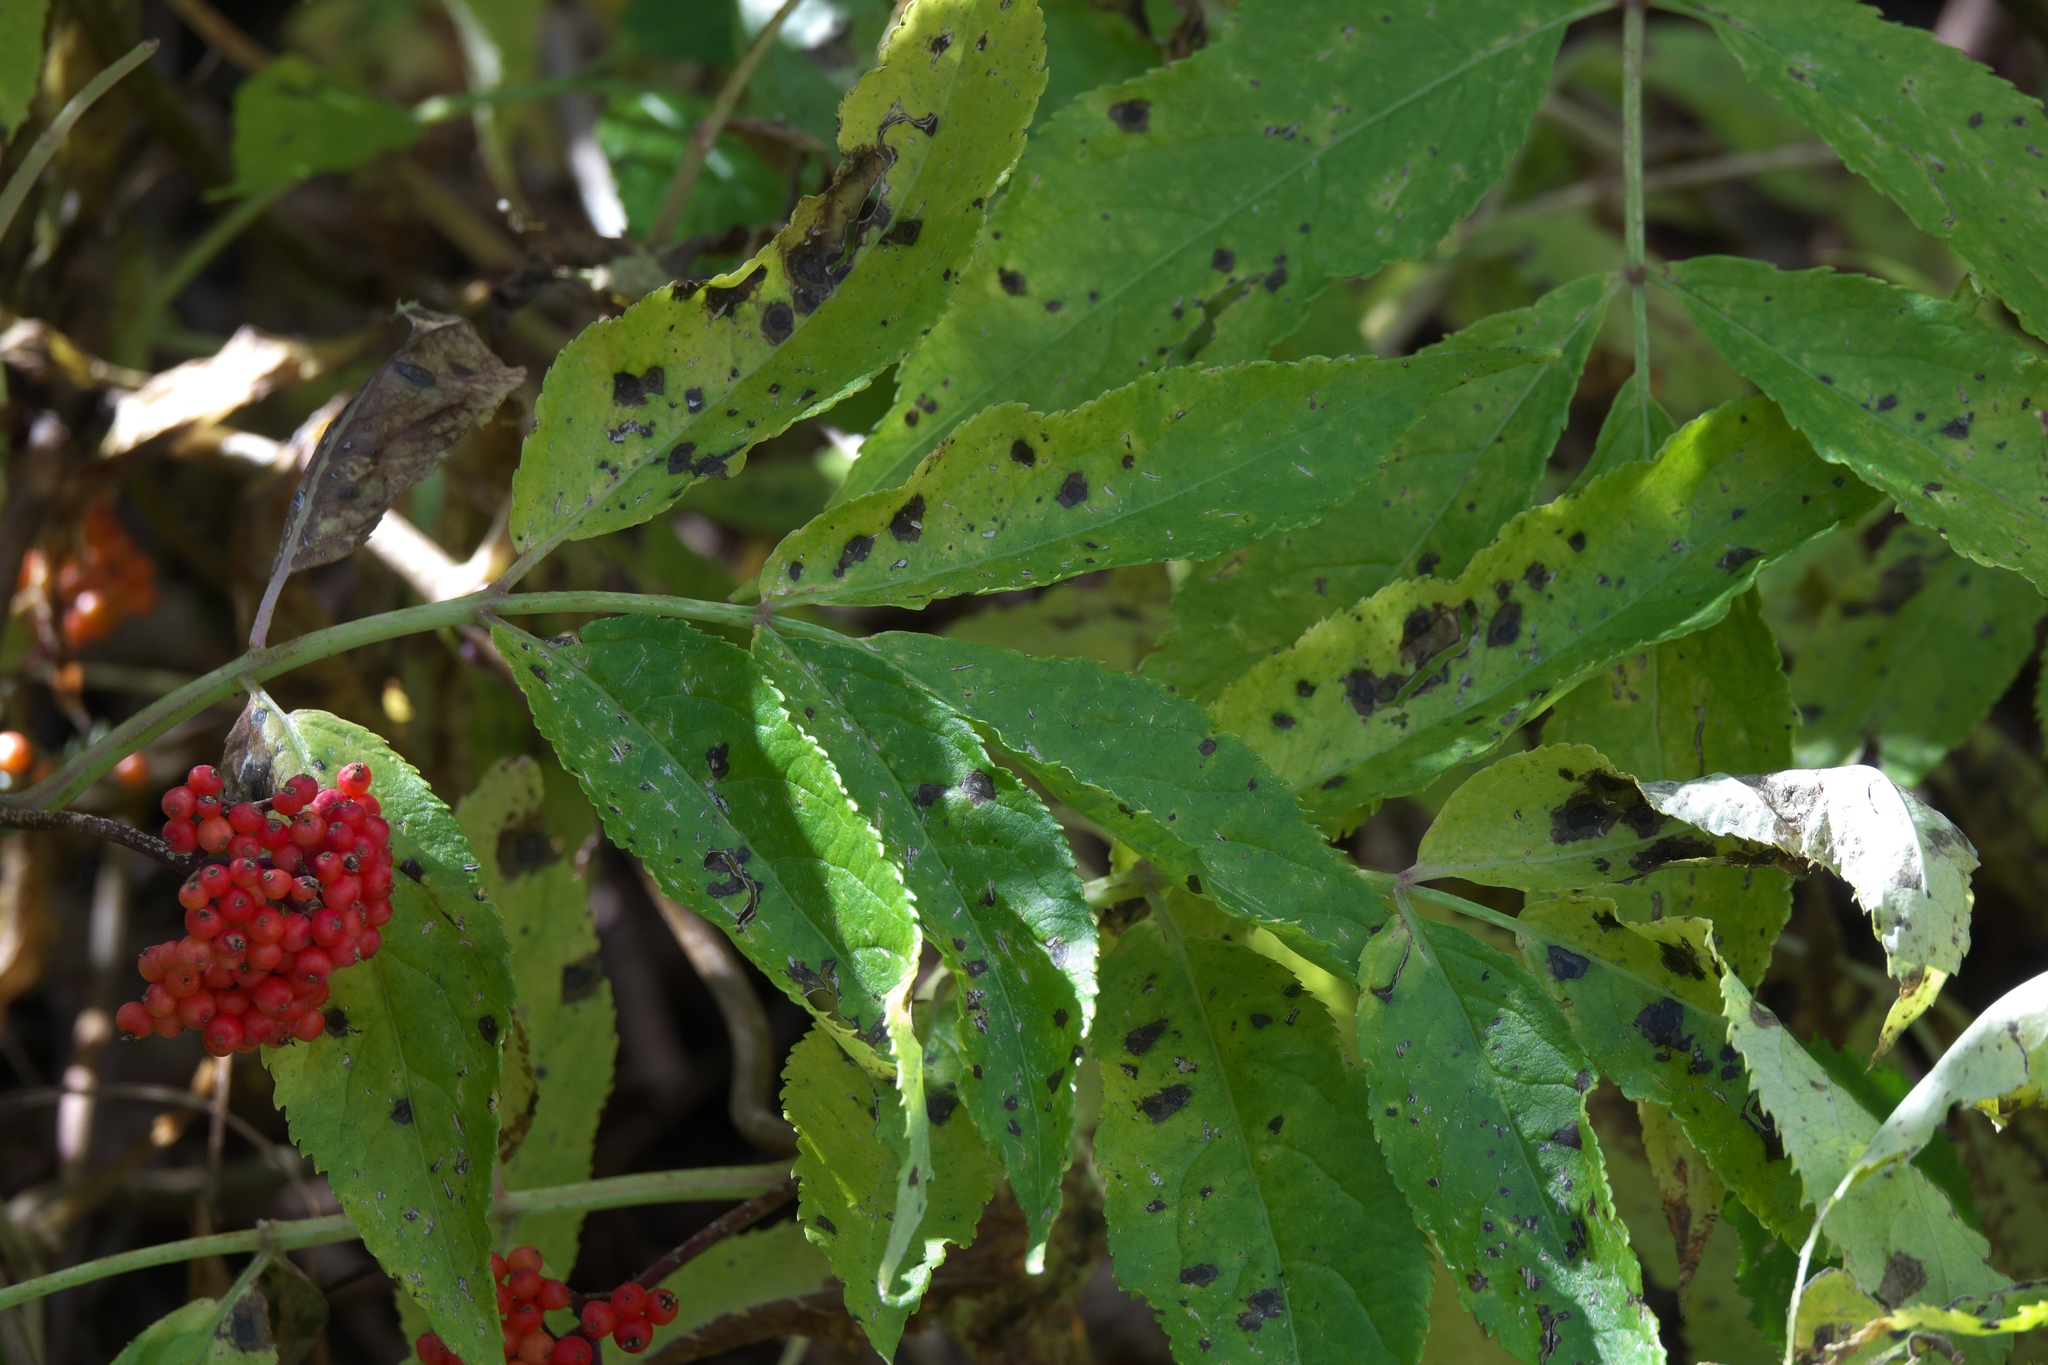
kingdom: Plantae
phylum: Tracheophyta
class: Magnoliopsida
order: Dipsacales
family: Viburnaceae
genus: Sambucus
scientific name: Sambucus racemosa
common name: Red-berried elder
